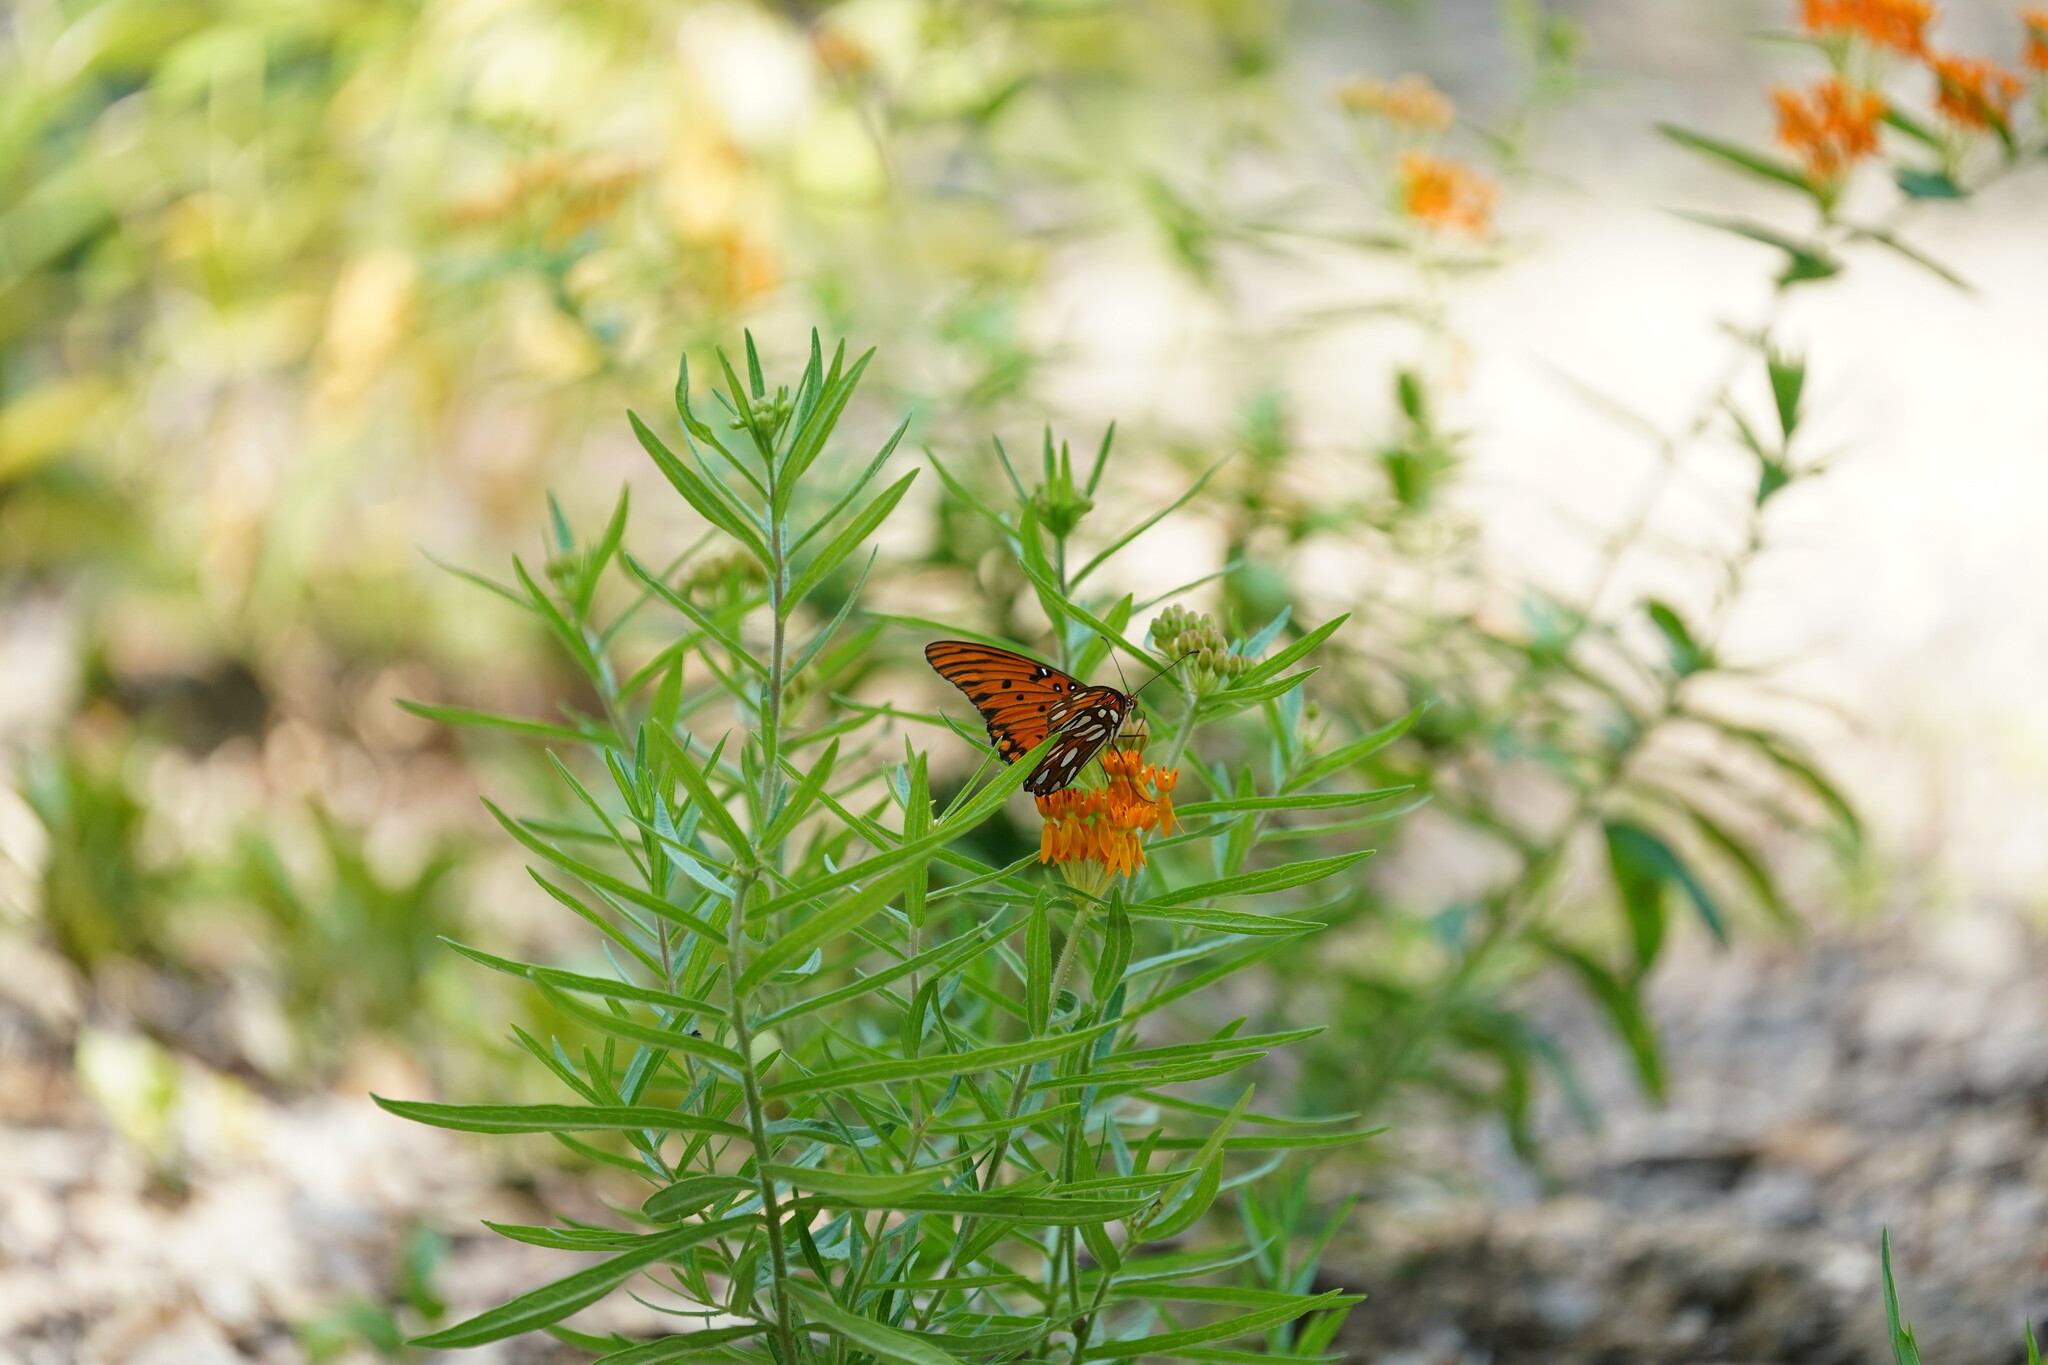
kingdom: Animalia
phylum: Arthropoda
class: Insecta
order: Lepidoptera
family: Nymphalidae
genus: Dione
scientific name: Dione vanillae
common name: Gulf fritillary
